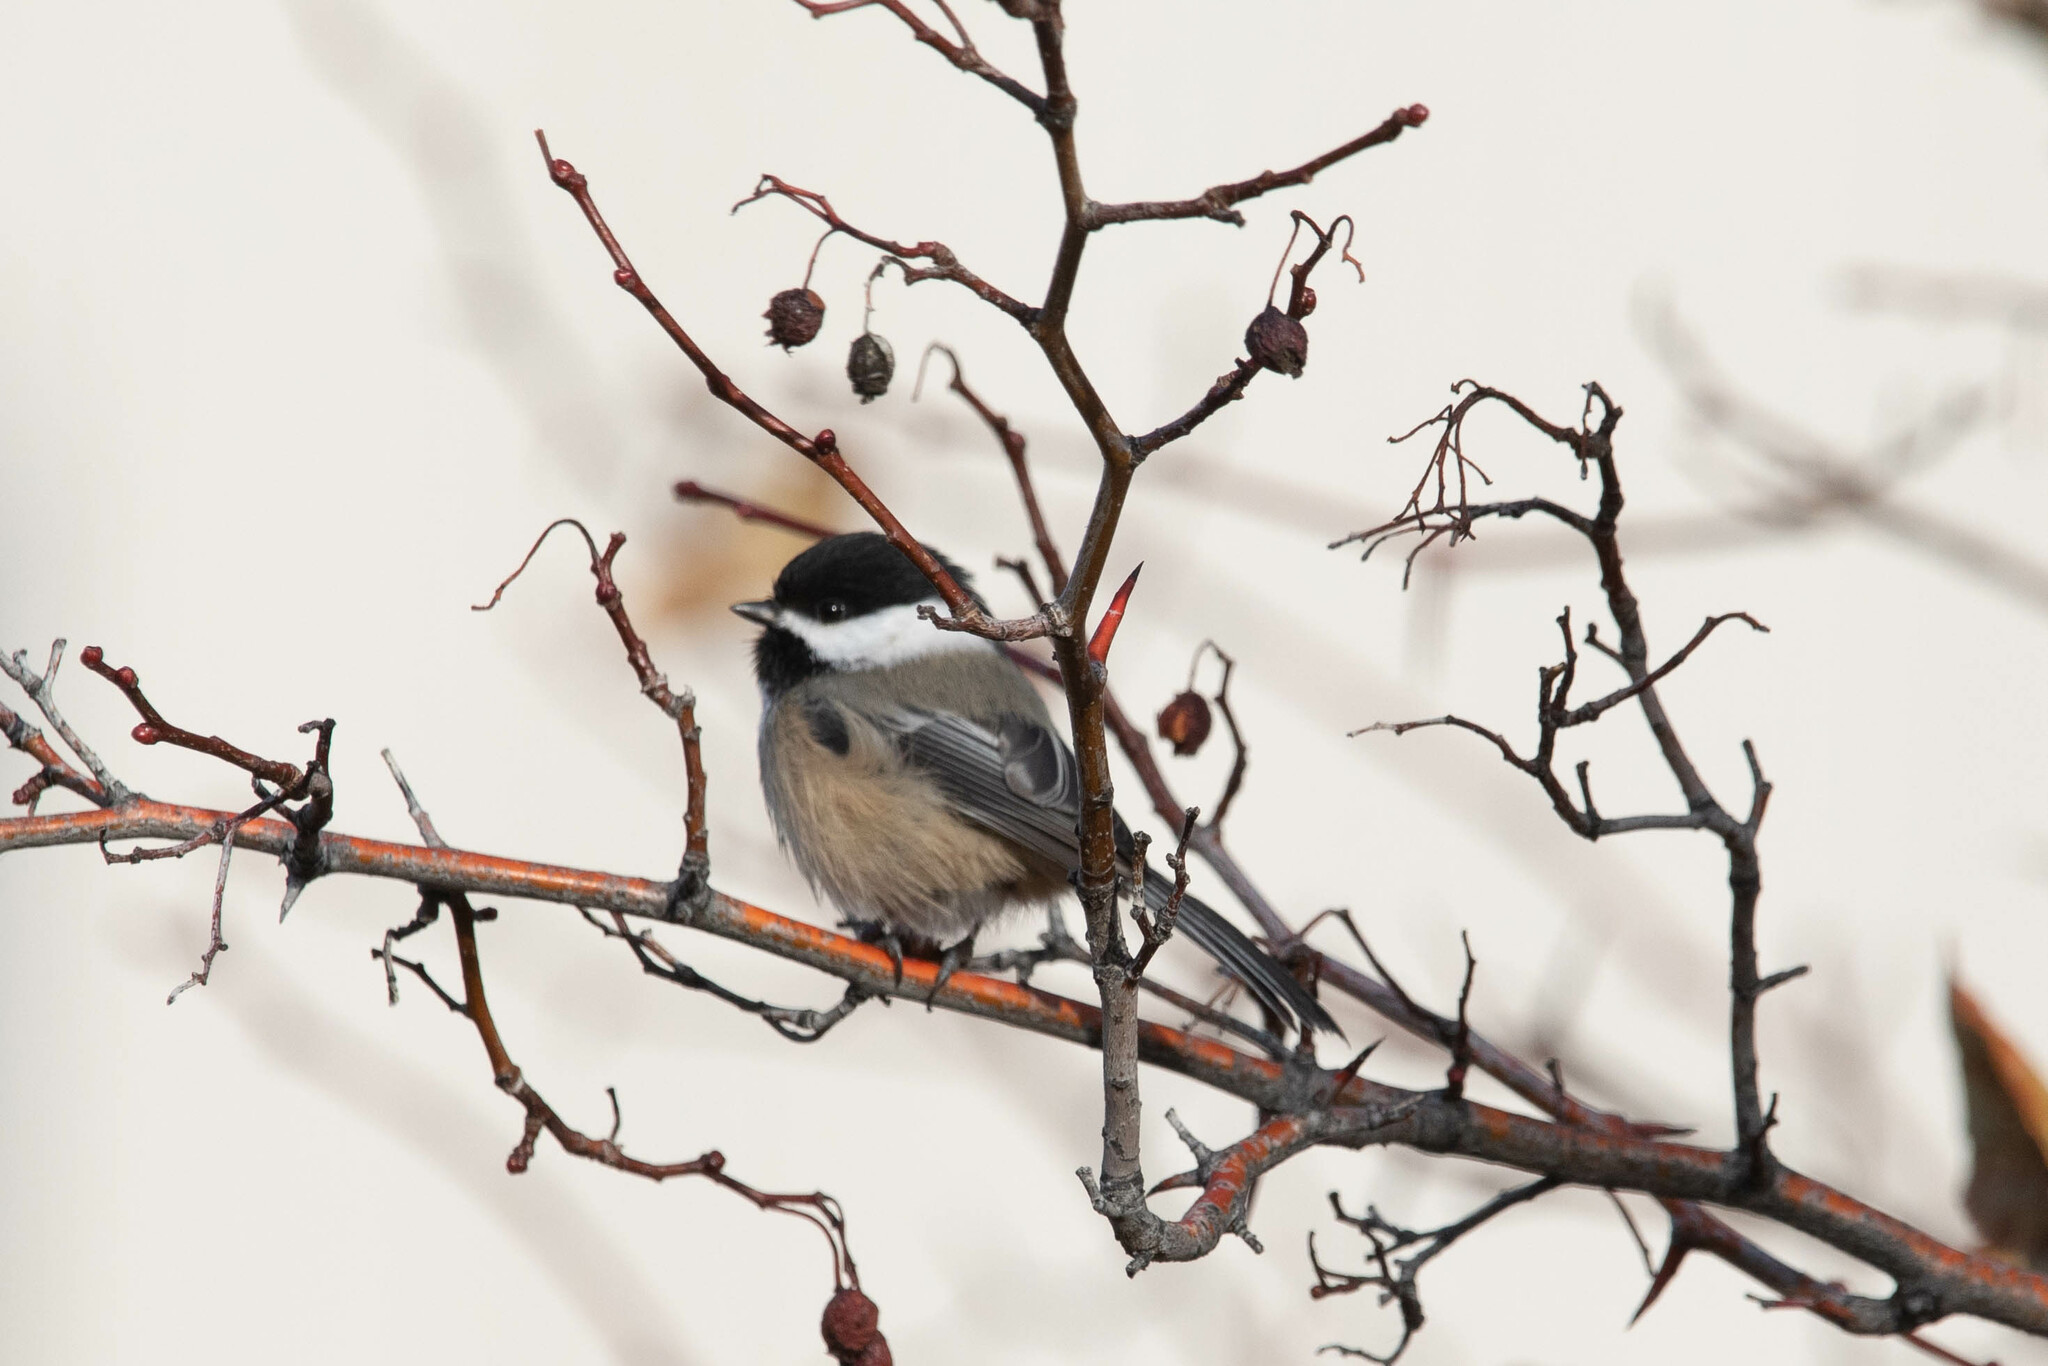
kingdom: Animalia
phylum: Chordata
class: Aves
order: Passeriformes
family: Paridae
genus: Poecile
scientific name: Poecile atricapillus
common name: Black-capped chickadee
